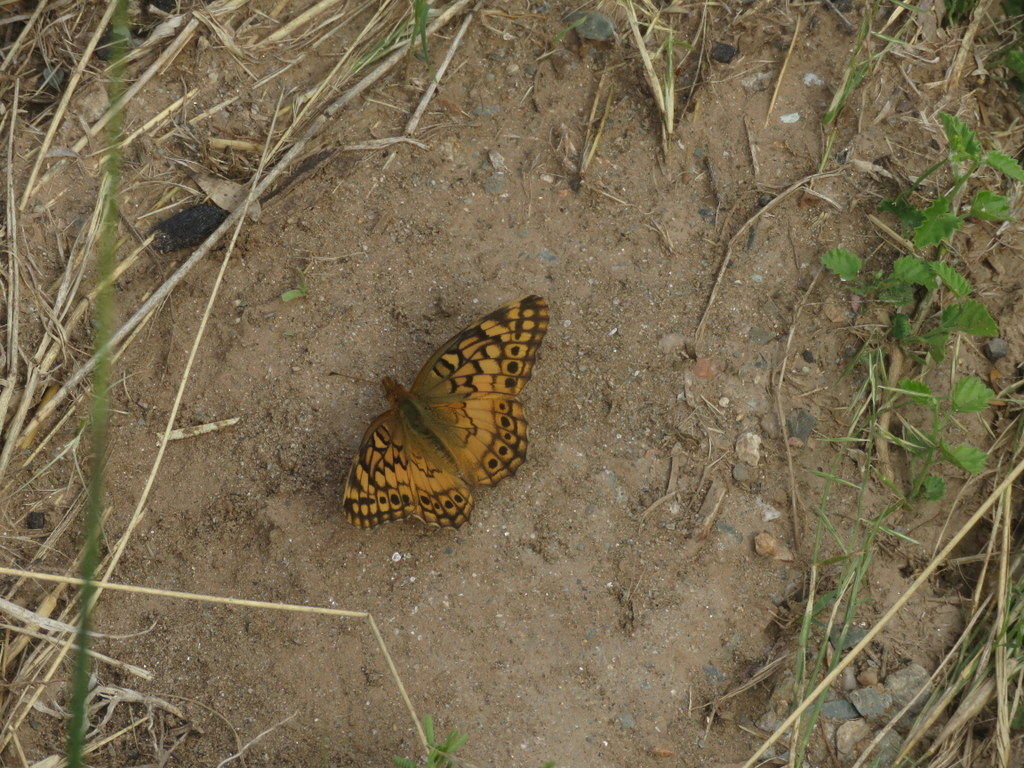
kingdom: Animalia
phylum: Arthropoda
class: Insecta
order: Lepidoptera
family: Nymphalidae
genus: Euptoieta
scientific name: Euptoieta hortensia
